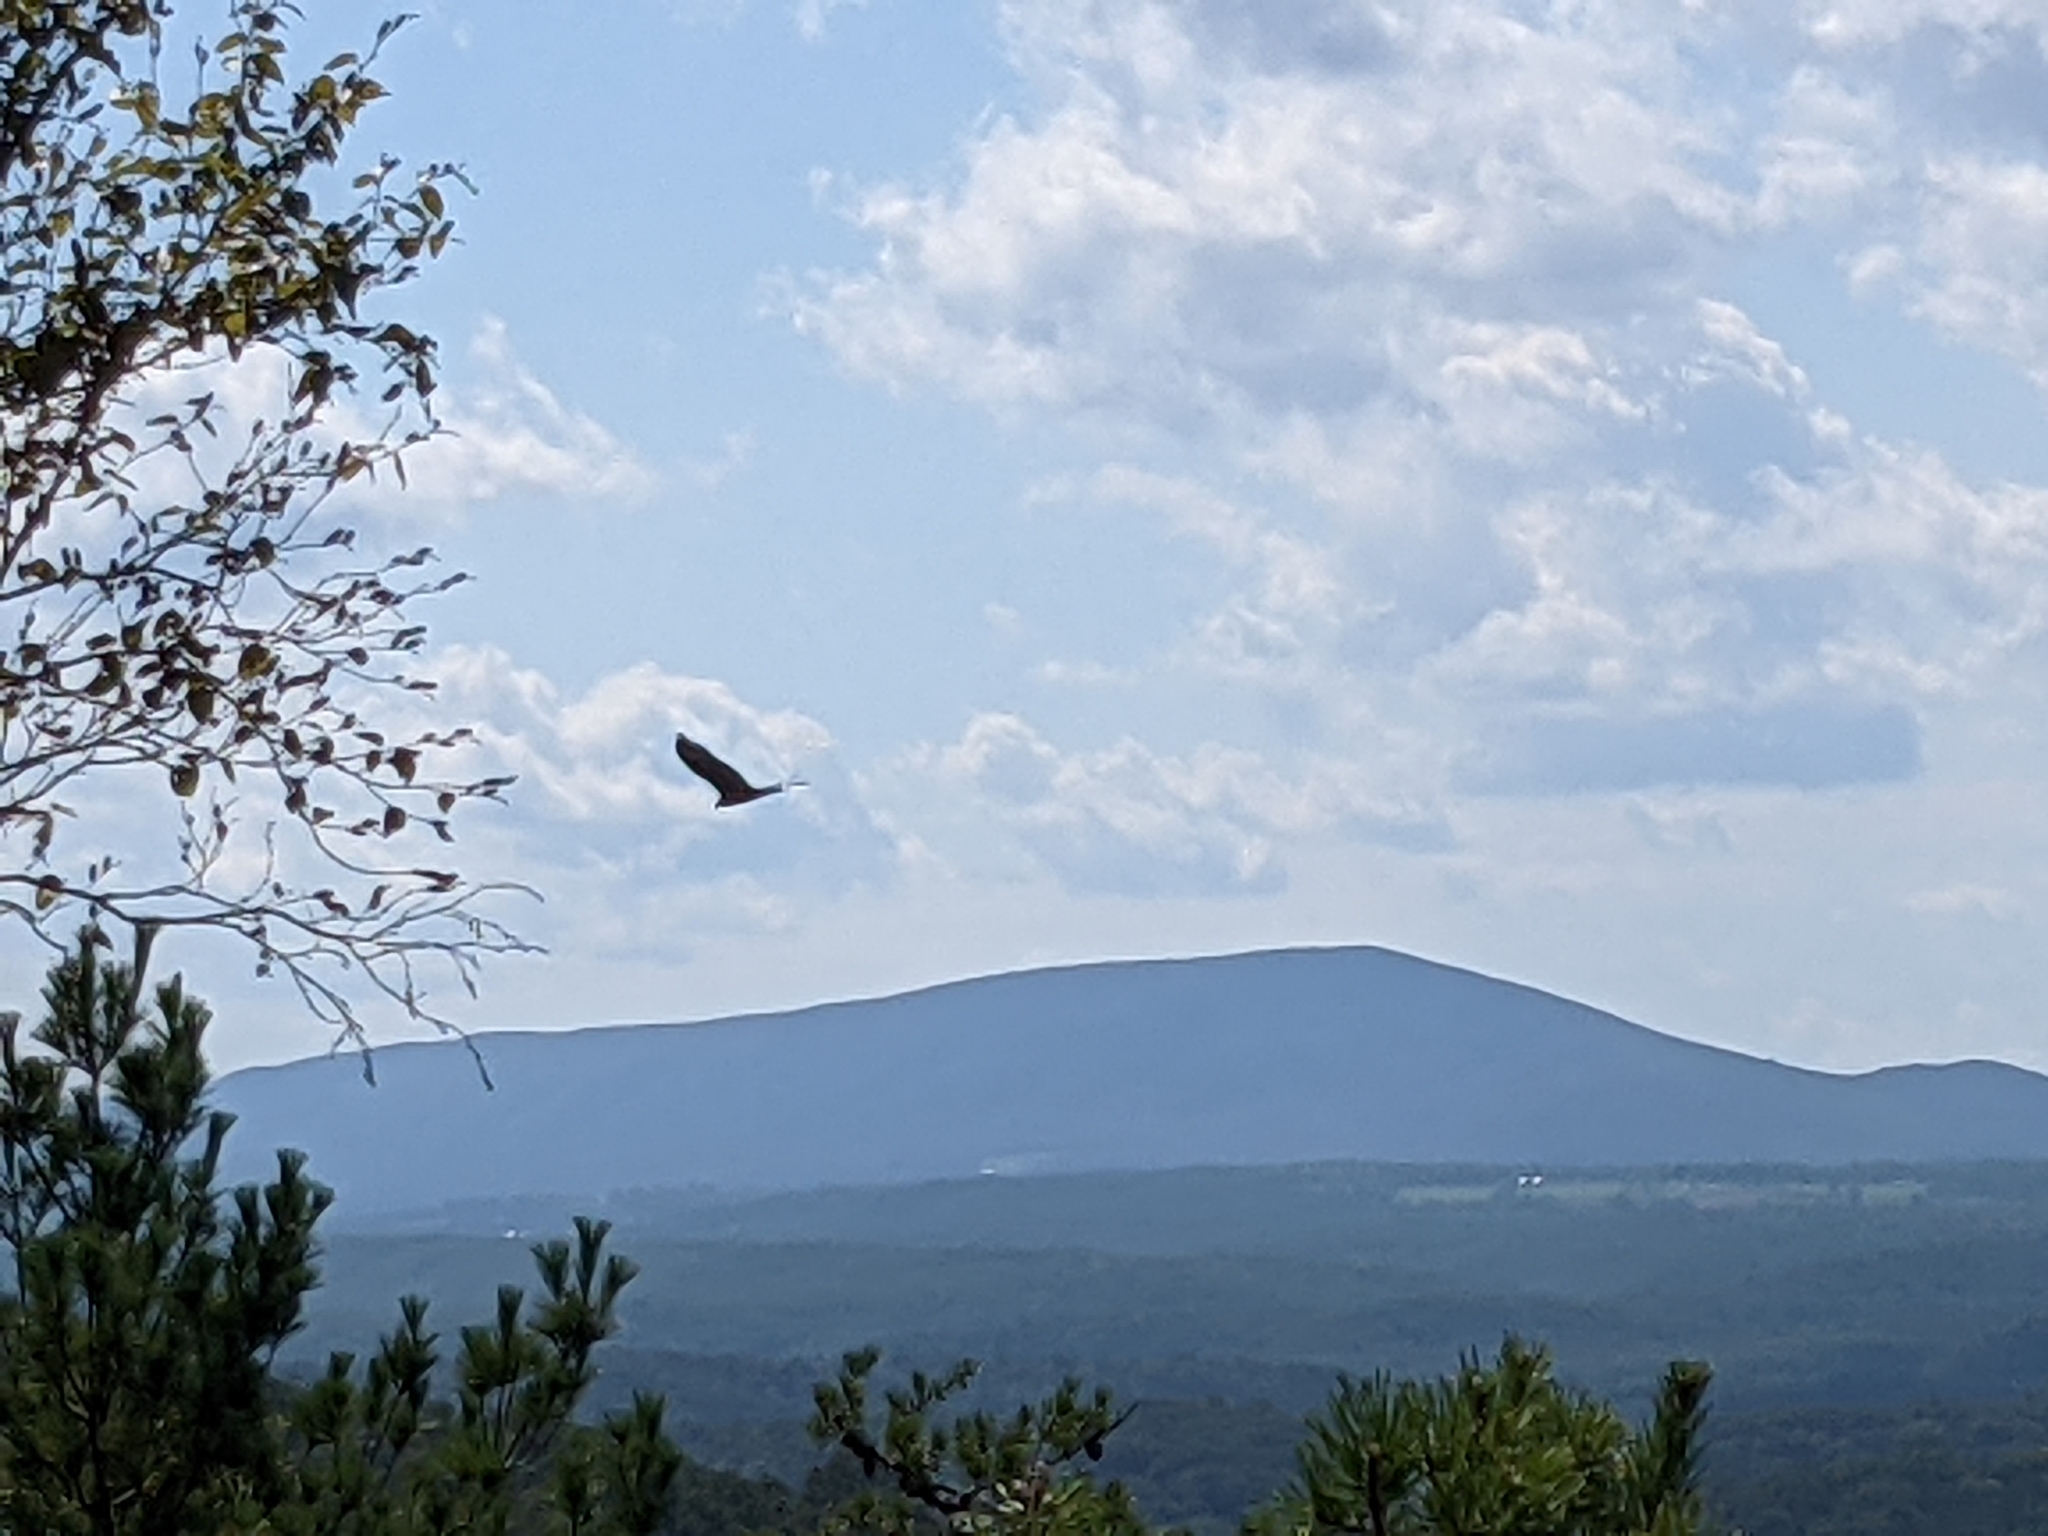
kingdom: Animalia
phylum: Chordata
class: Aves
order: Accipitriformes
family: Cathartidae
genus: Coragyps
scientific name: Coragyps atratus
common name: Black vulture
